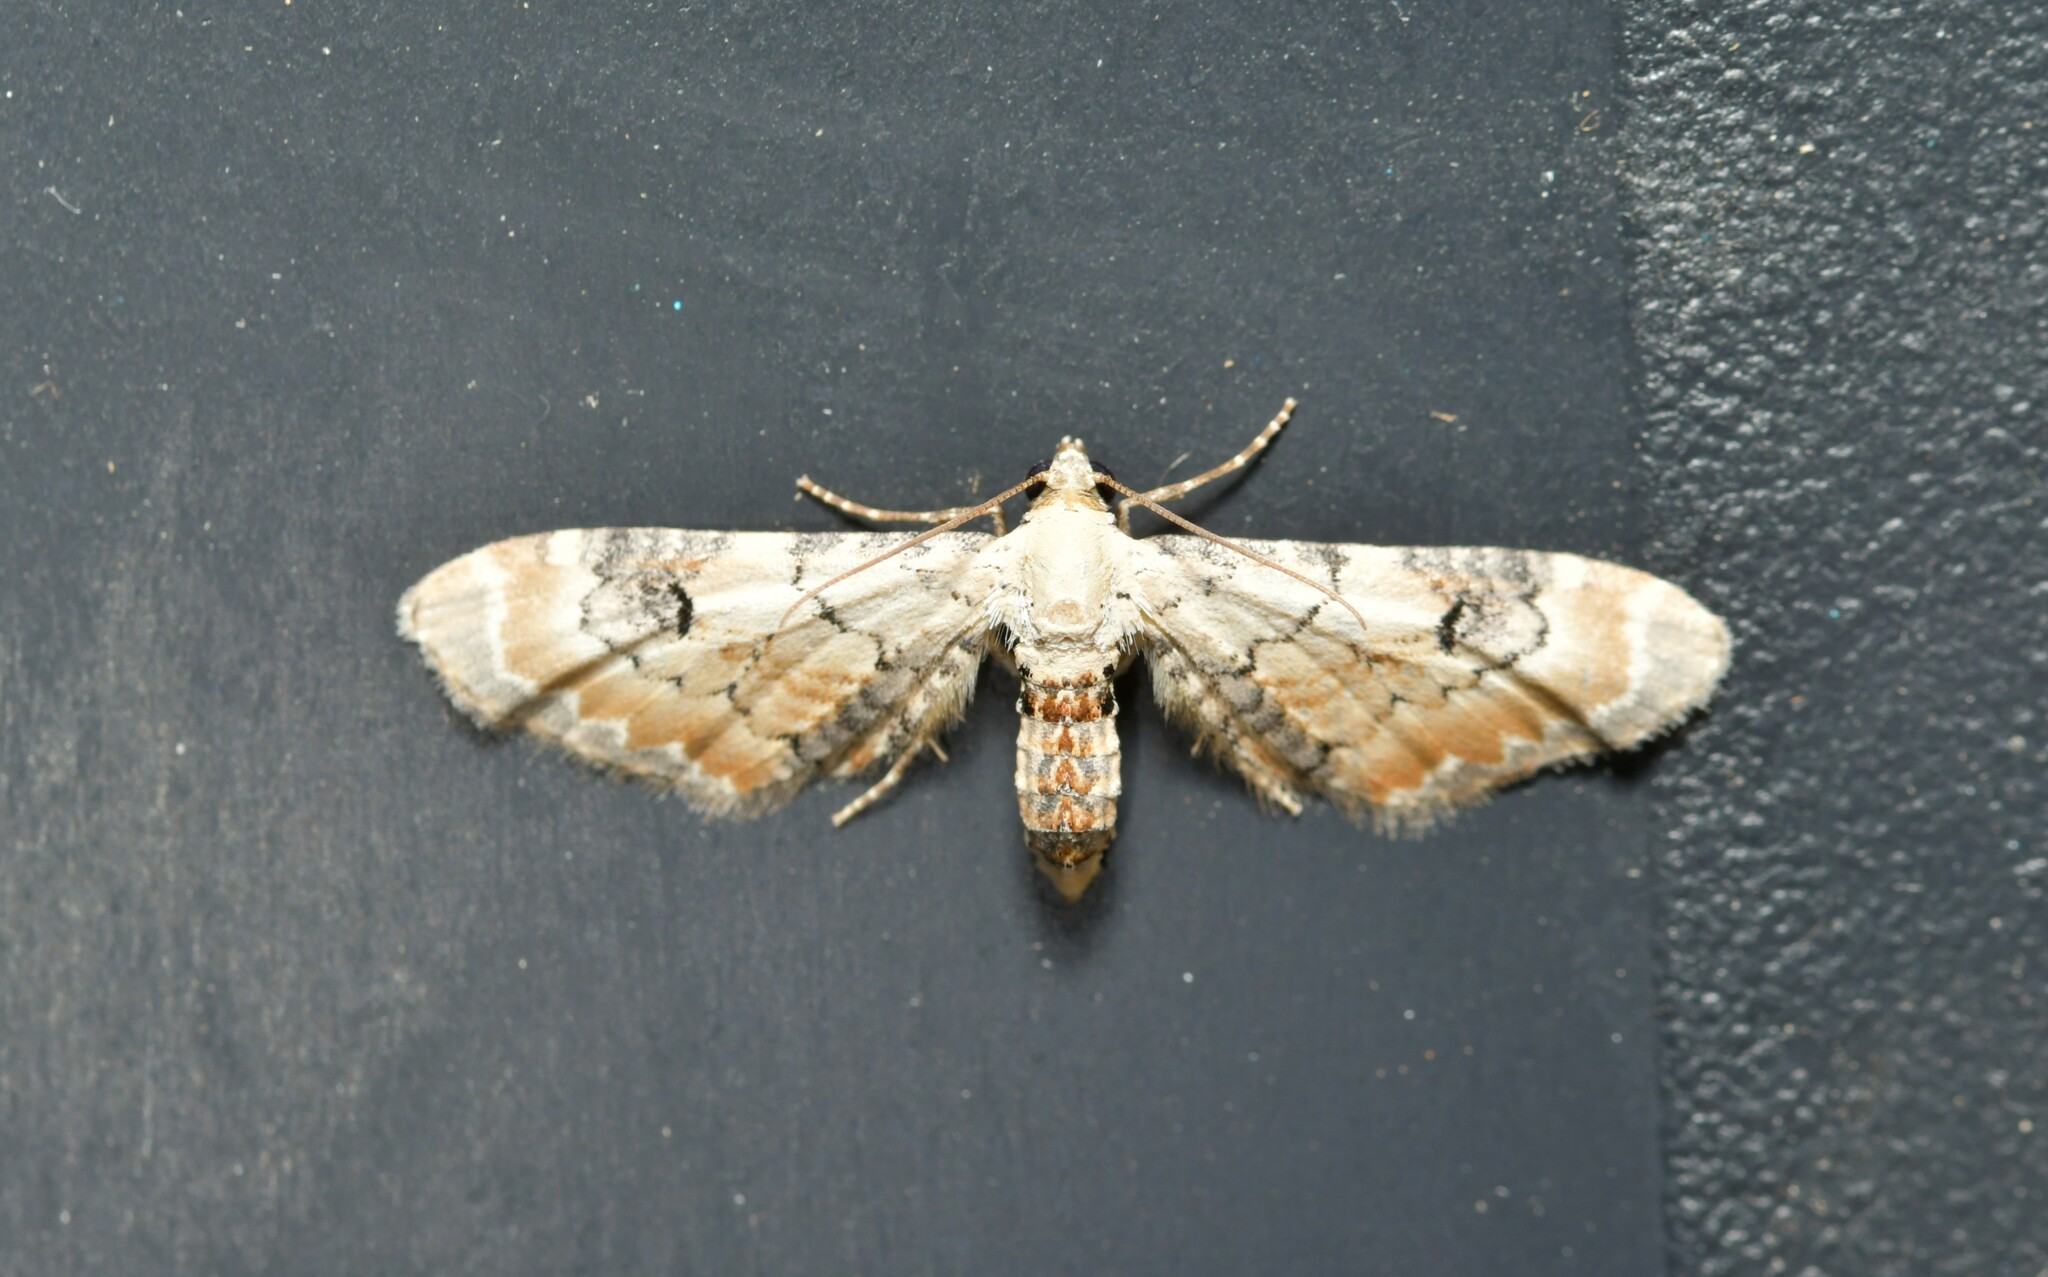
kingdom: Animalia
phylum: Arthropoda
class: Insecta
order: Lepidoptera
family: Geometridae
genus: Eupithecia
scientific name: Eupithecia centaureata
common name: Lime-speck pug
